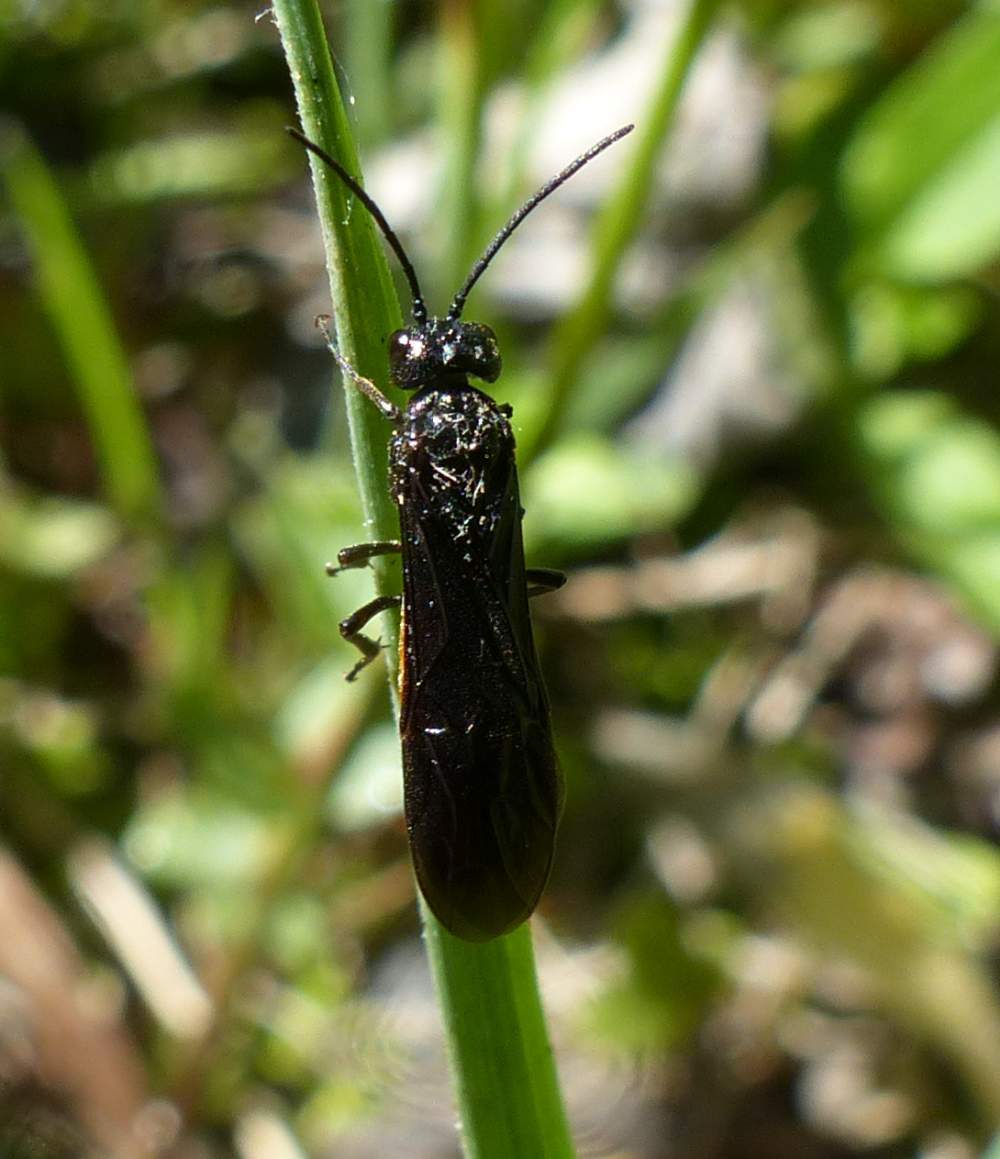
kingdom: Animalia
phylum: Arthropoda
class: Insecta
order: Hymenoptera
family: Tenthredinidae
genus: Strongylogaster
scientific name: Strongylogaster tacita
